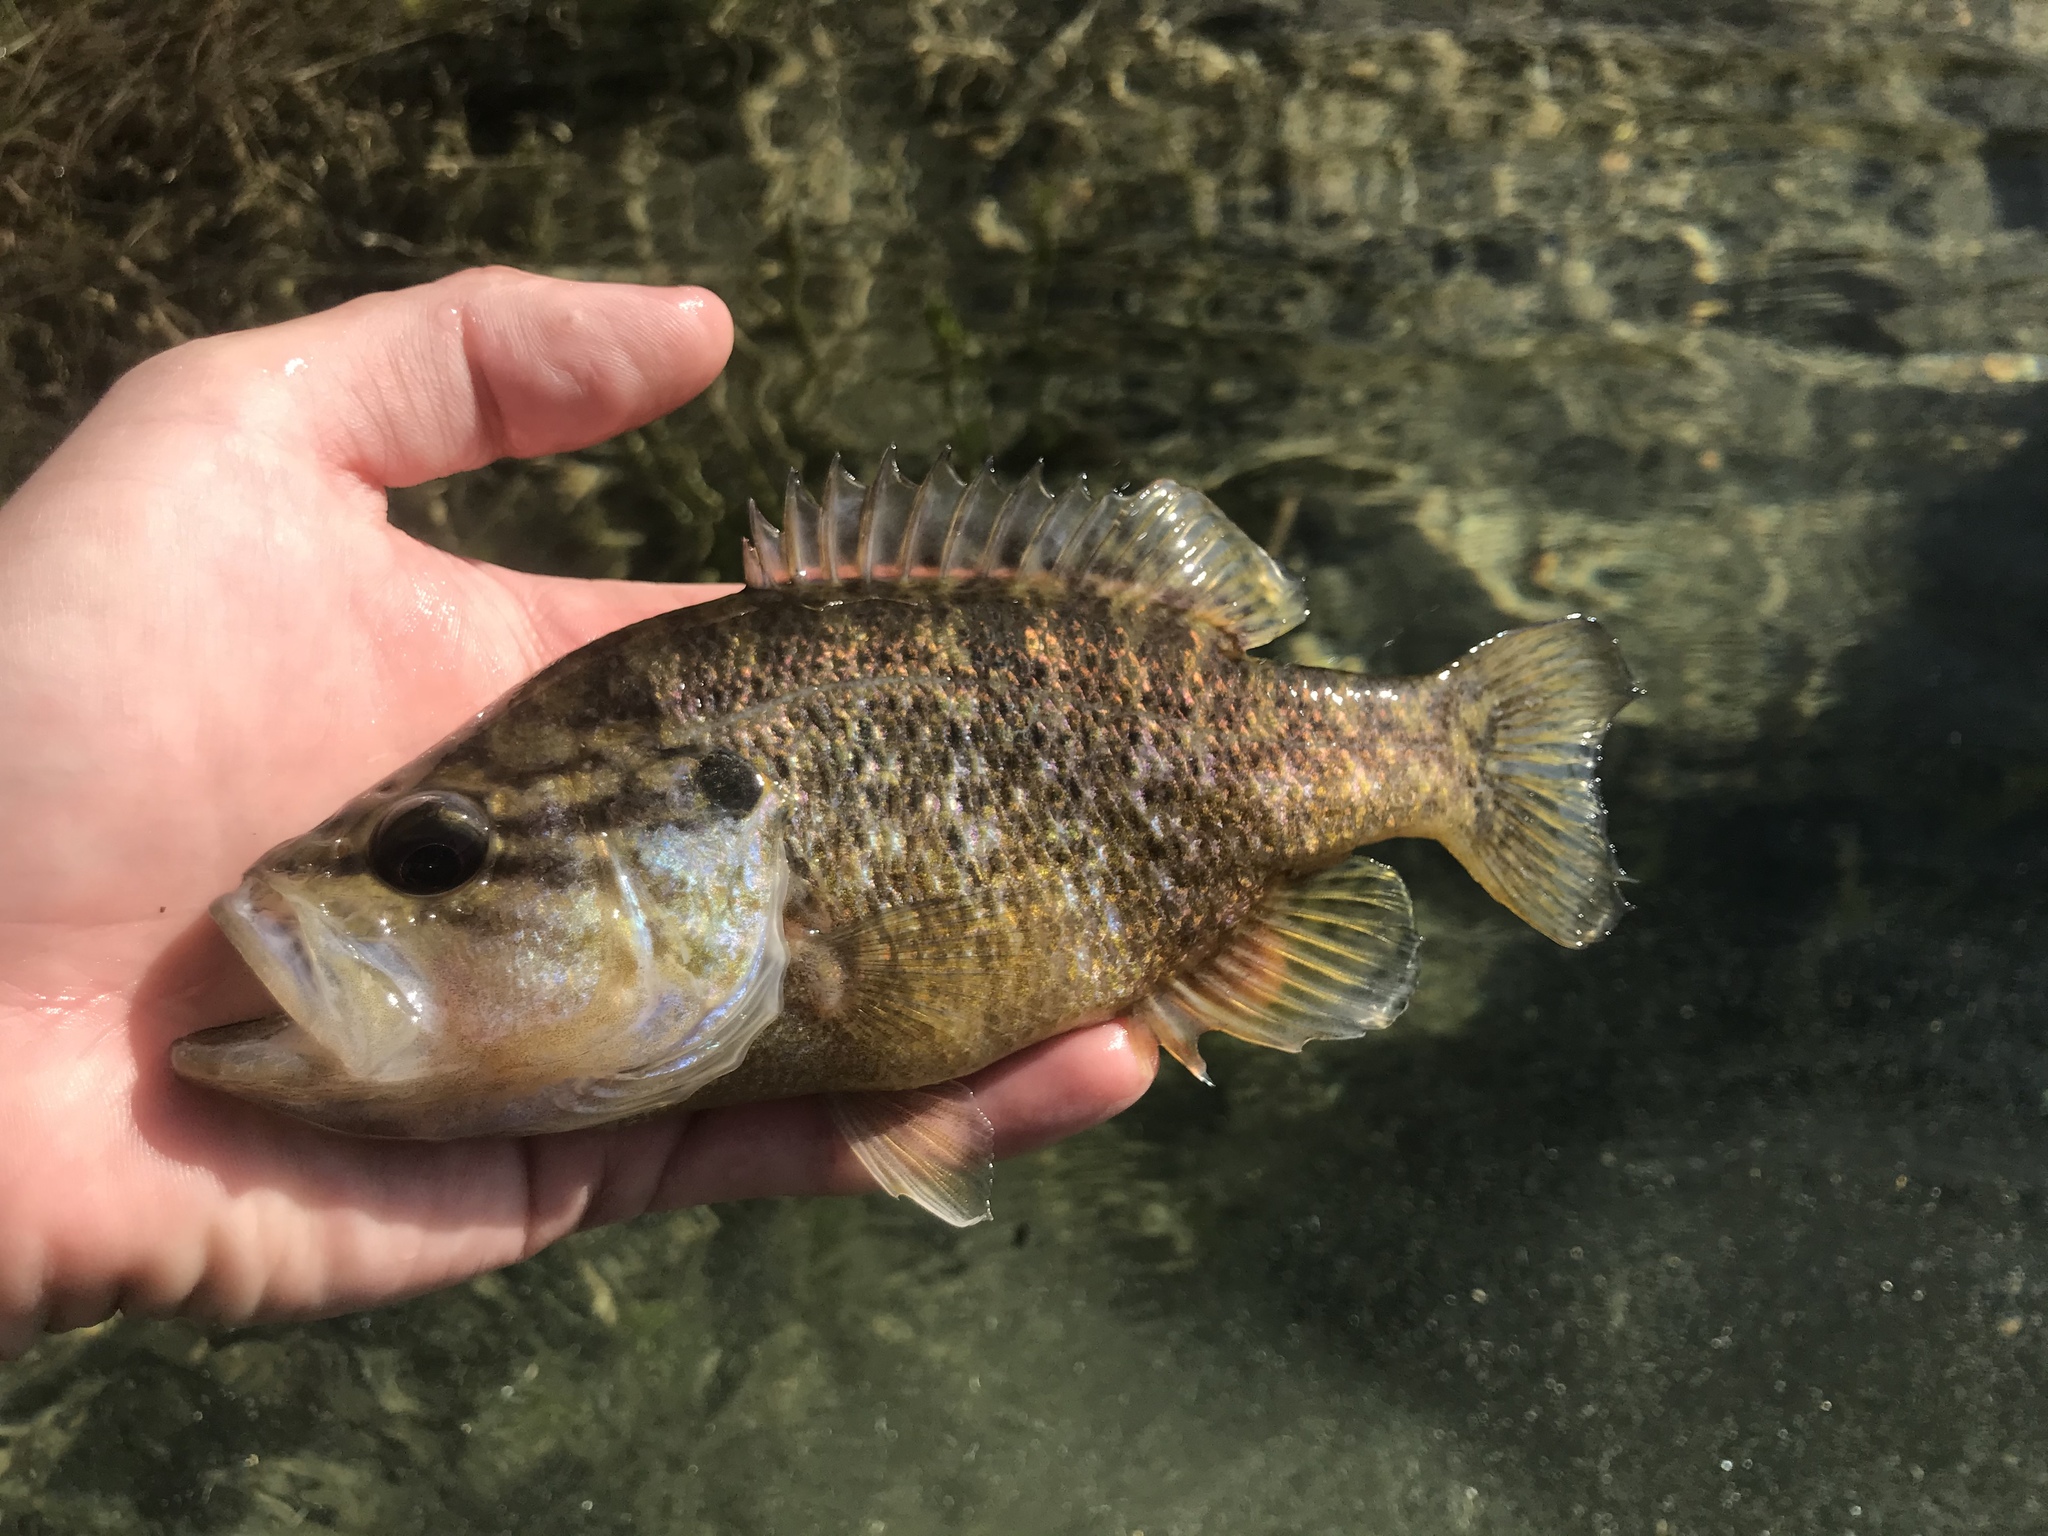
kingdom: Animalia
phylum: Chordata
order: Perciformes
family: Centrarchidae
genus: Lepomis
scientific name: Lepomis gulosus
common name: Warmouth
